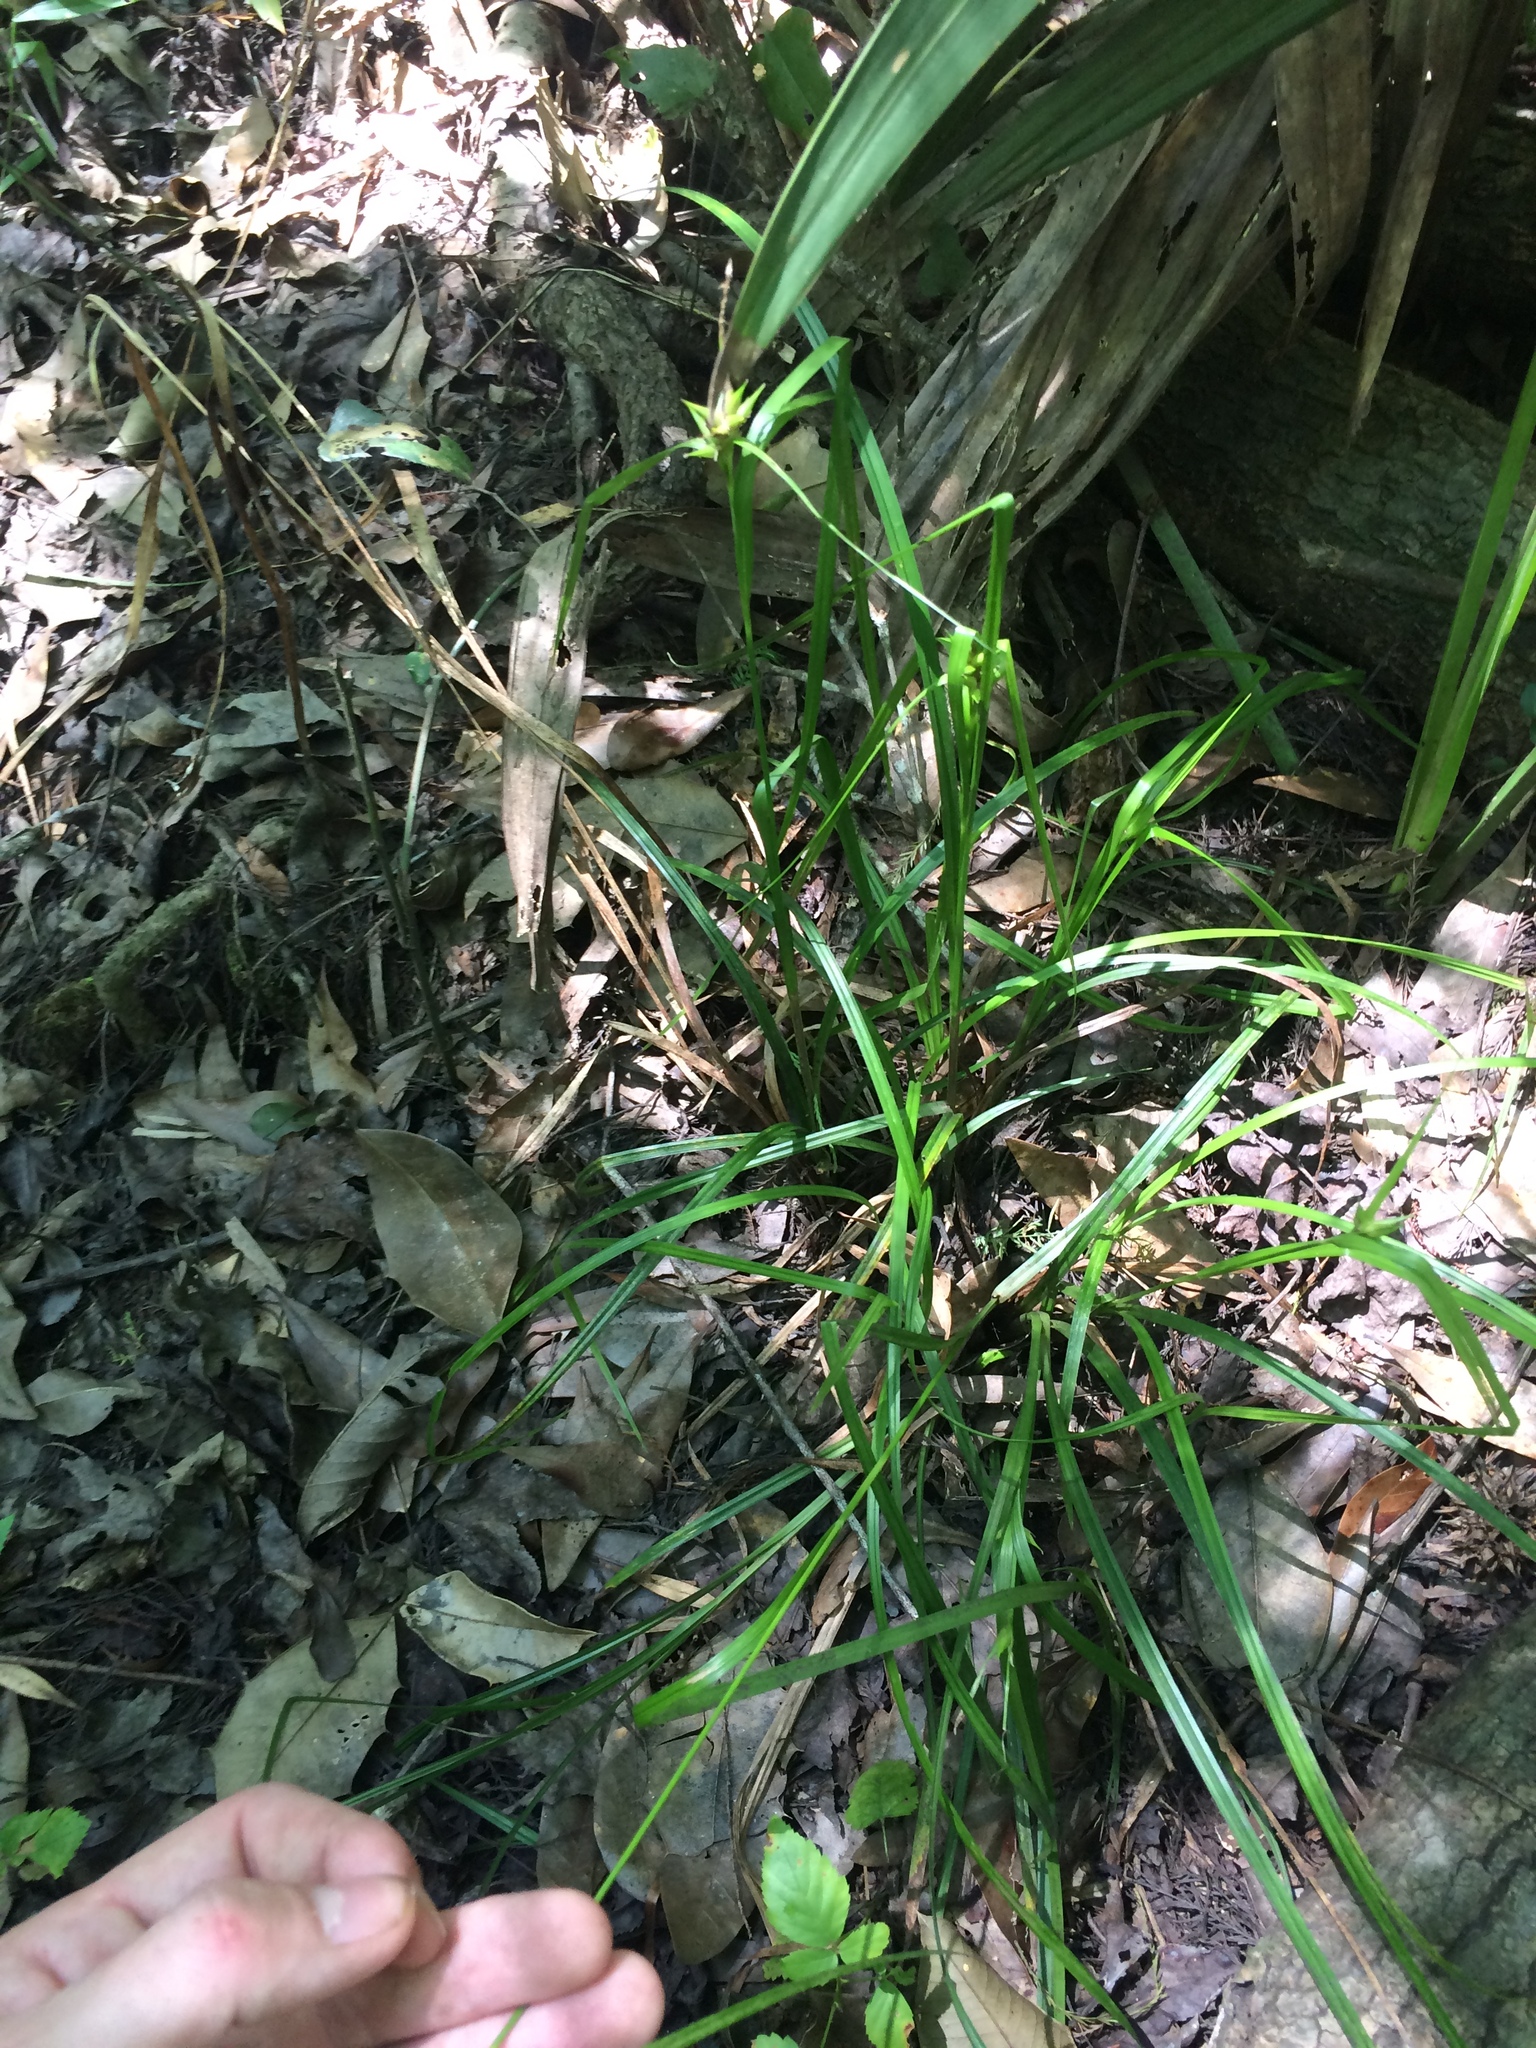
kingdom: Plantae
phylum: Tracheophyta
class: Liliopsida
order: Poales
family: Cyperaceae
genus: Carex
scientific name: Carex intumescens
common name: Greater bladder sedge
